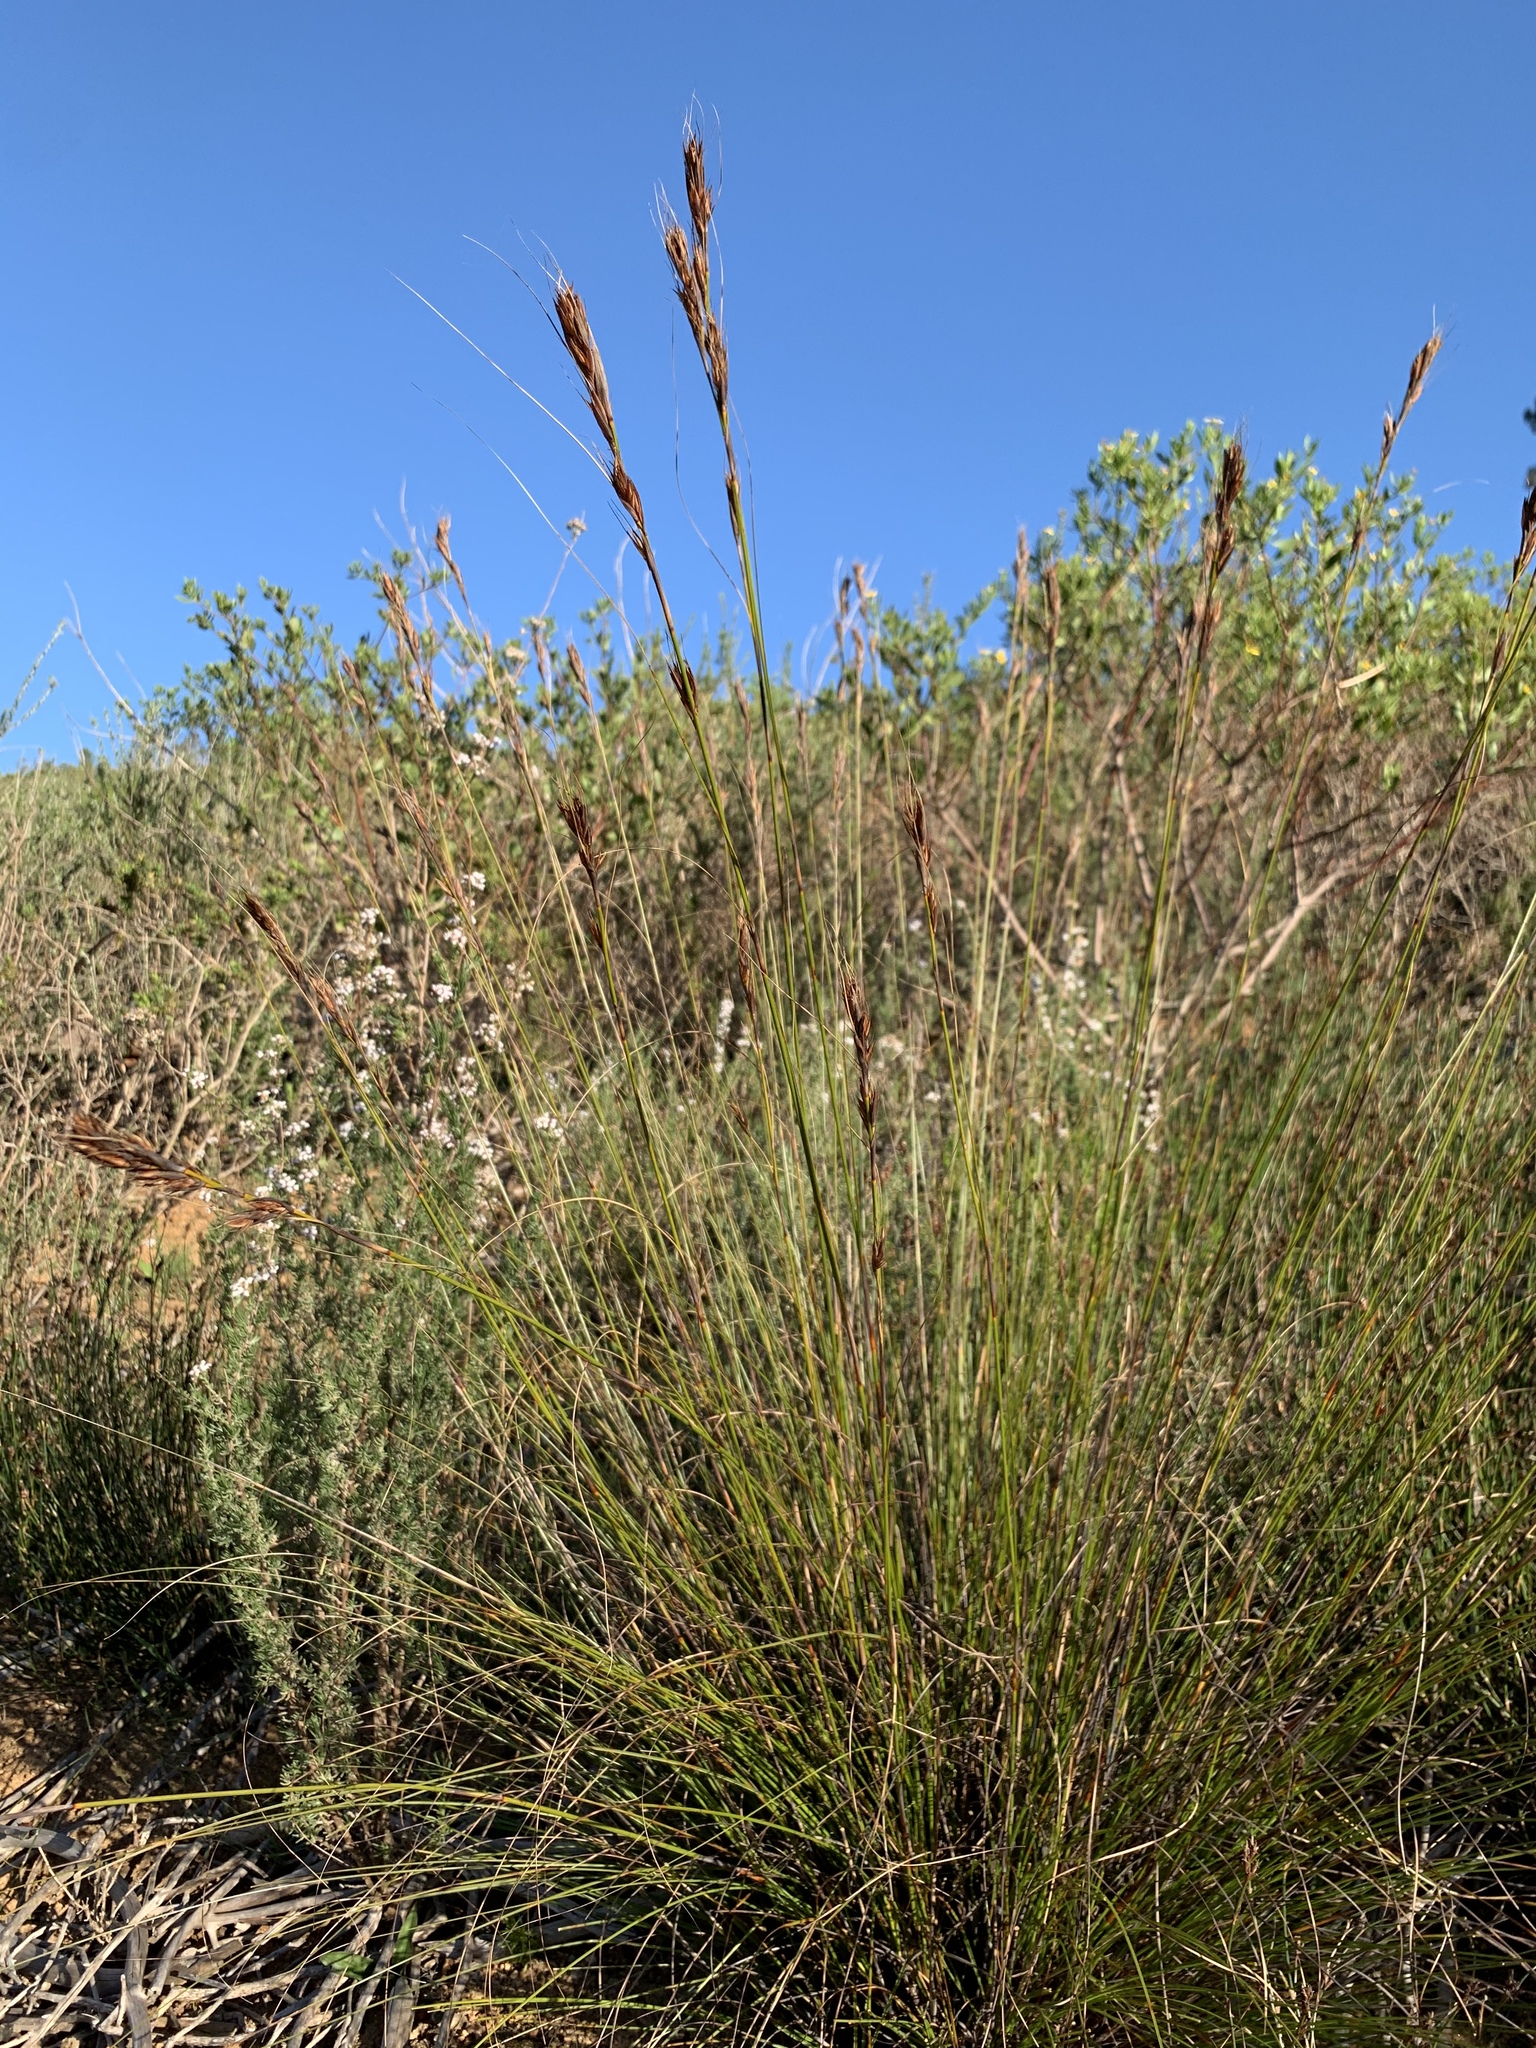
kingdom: Plantae
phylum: Tracheophyta
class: Liliopsida
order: Poales
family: Cyperaceae
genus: Tetraria
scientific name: Tetraria ustulata
